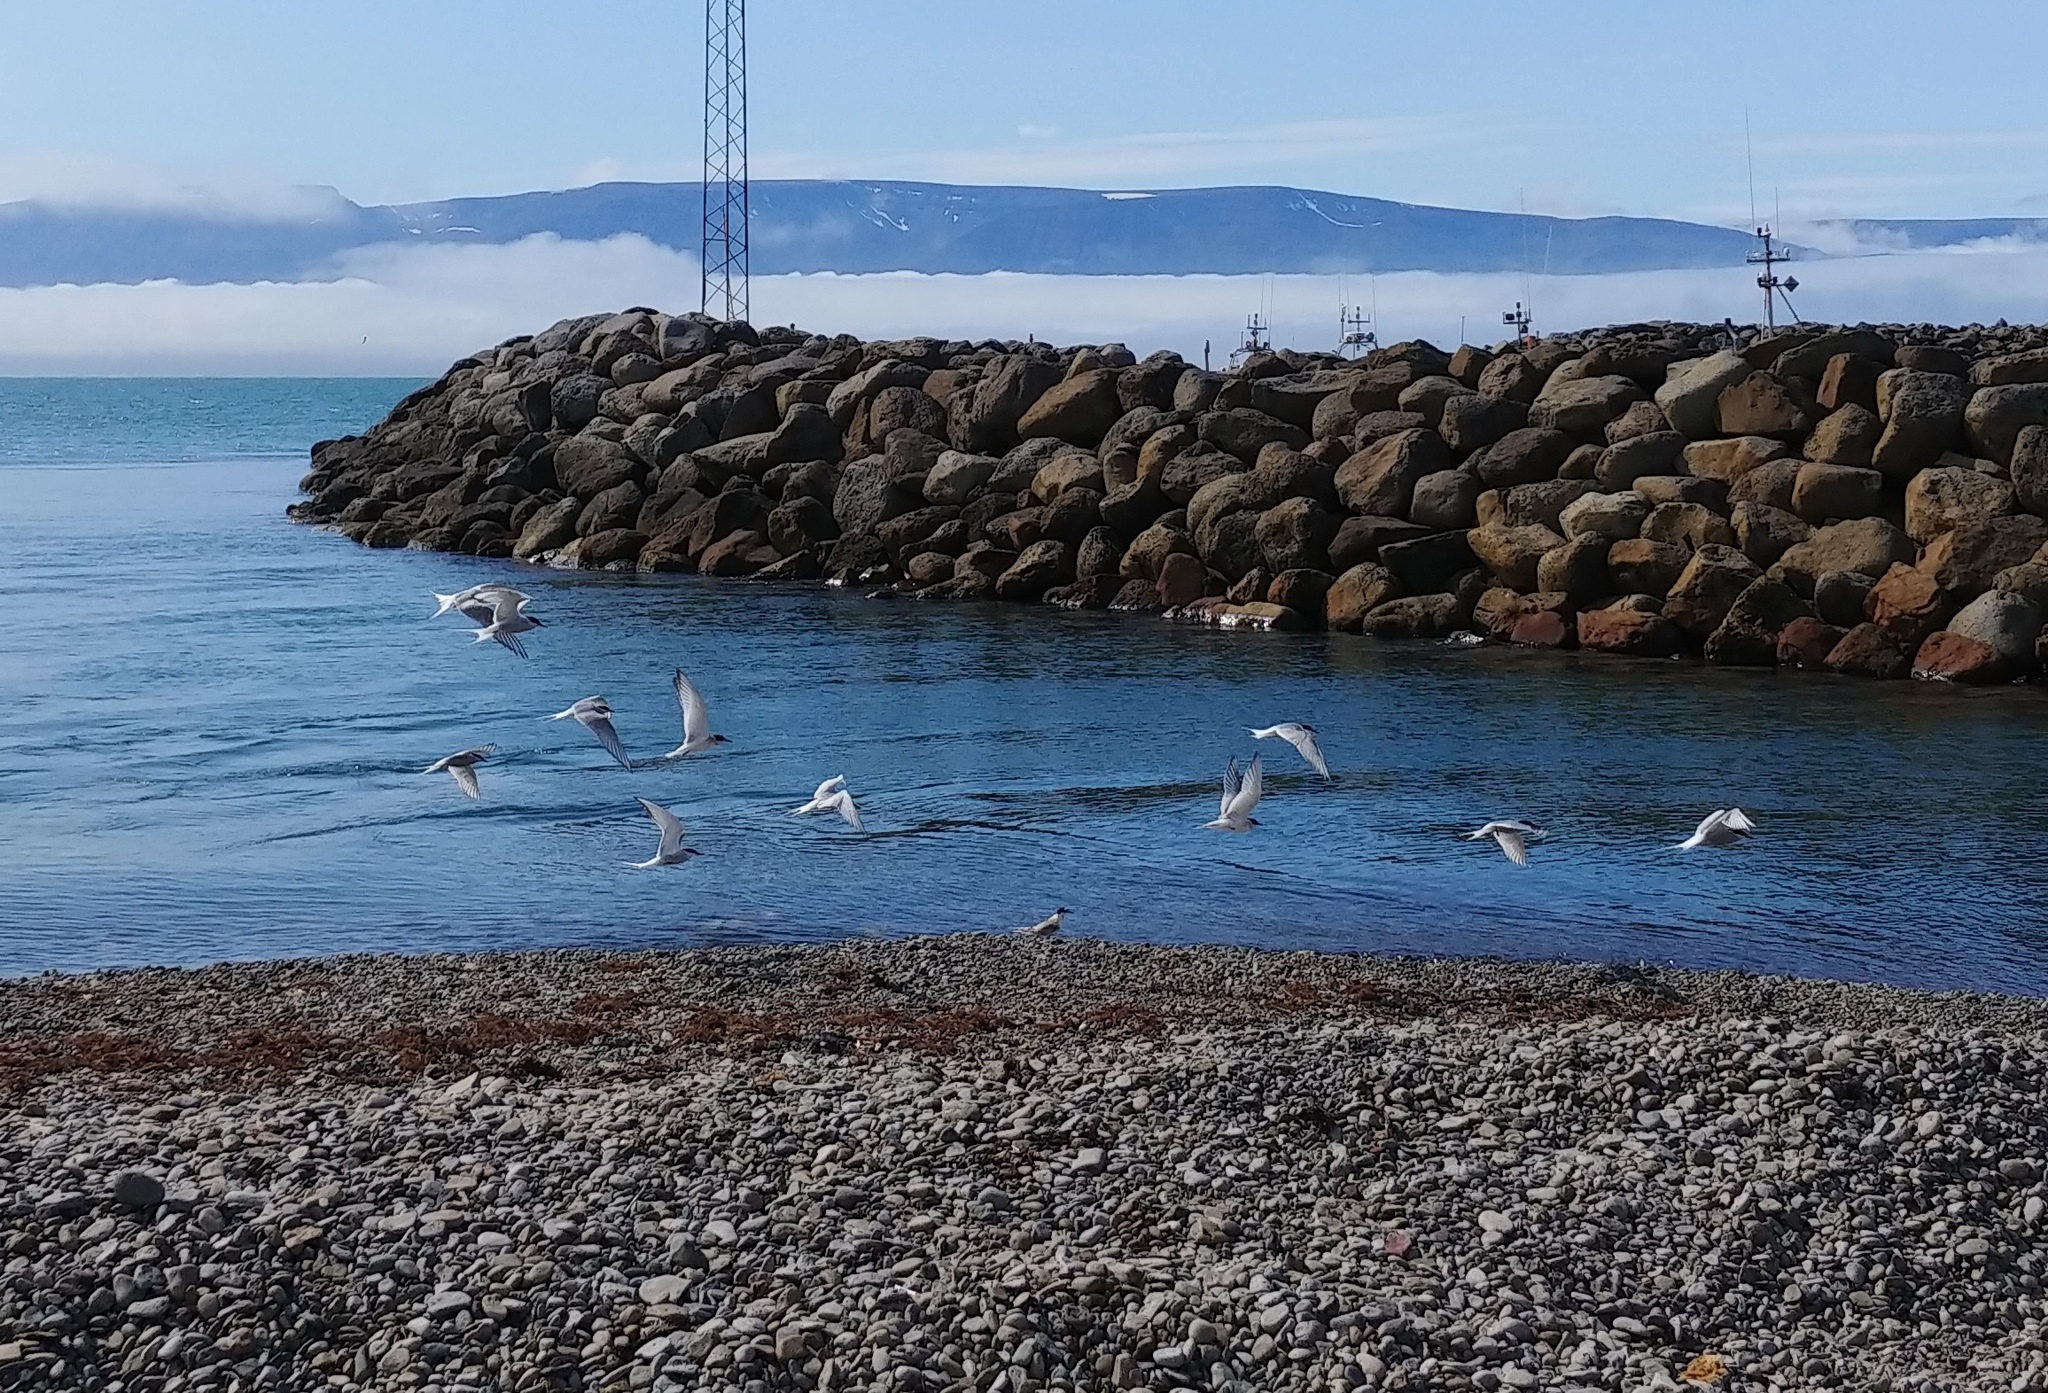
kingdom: Animalia
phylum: Chordata
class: Aves
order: Charadriiformes
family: Laridae
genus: Sterna
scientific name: Sterna paradisaea
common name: Arctic tern
